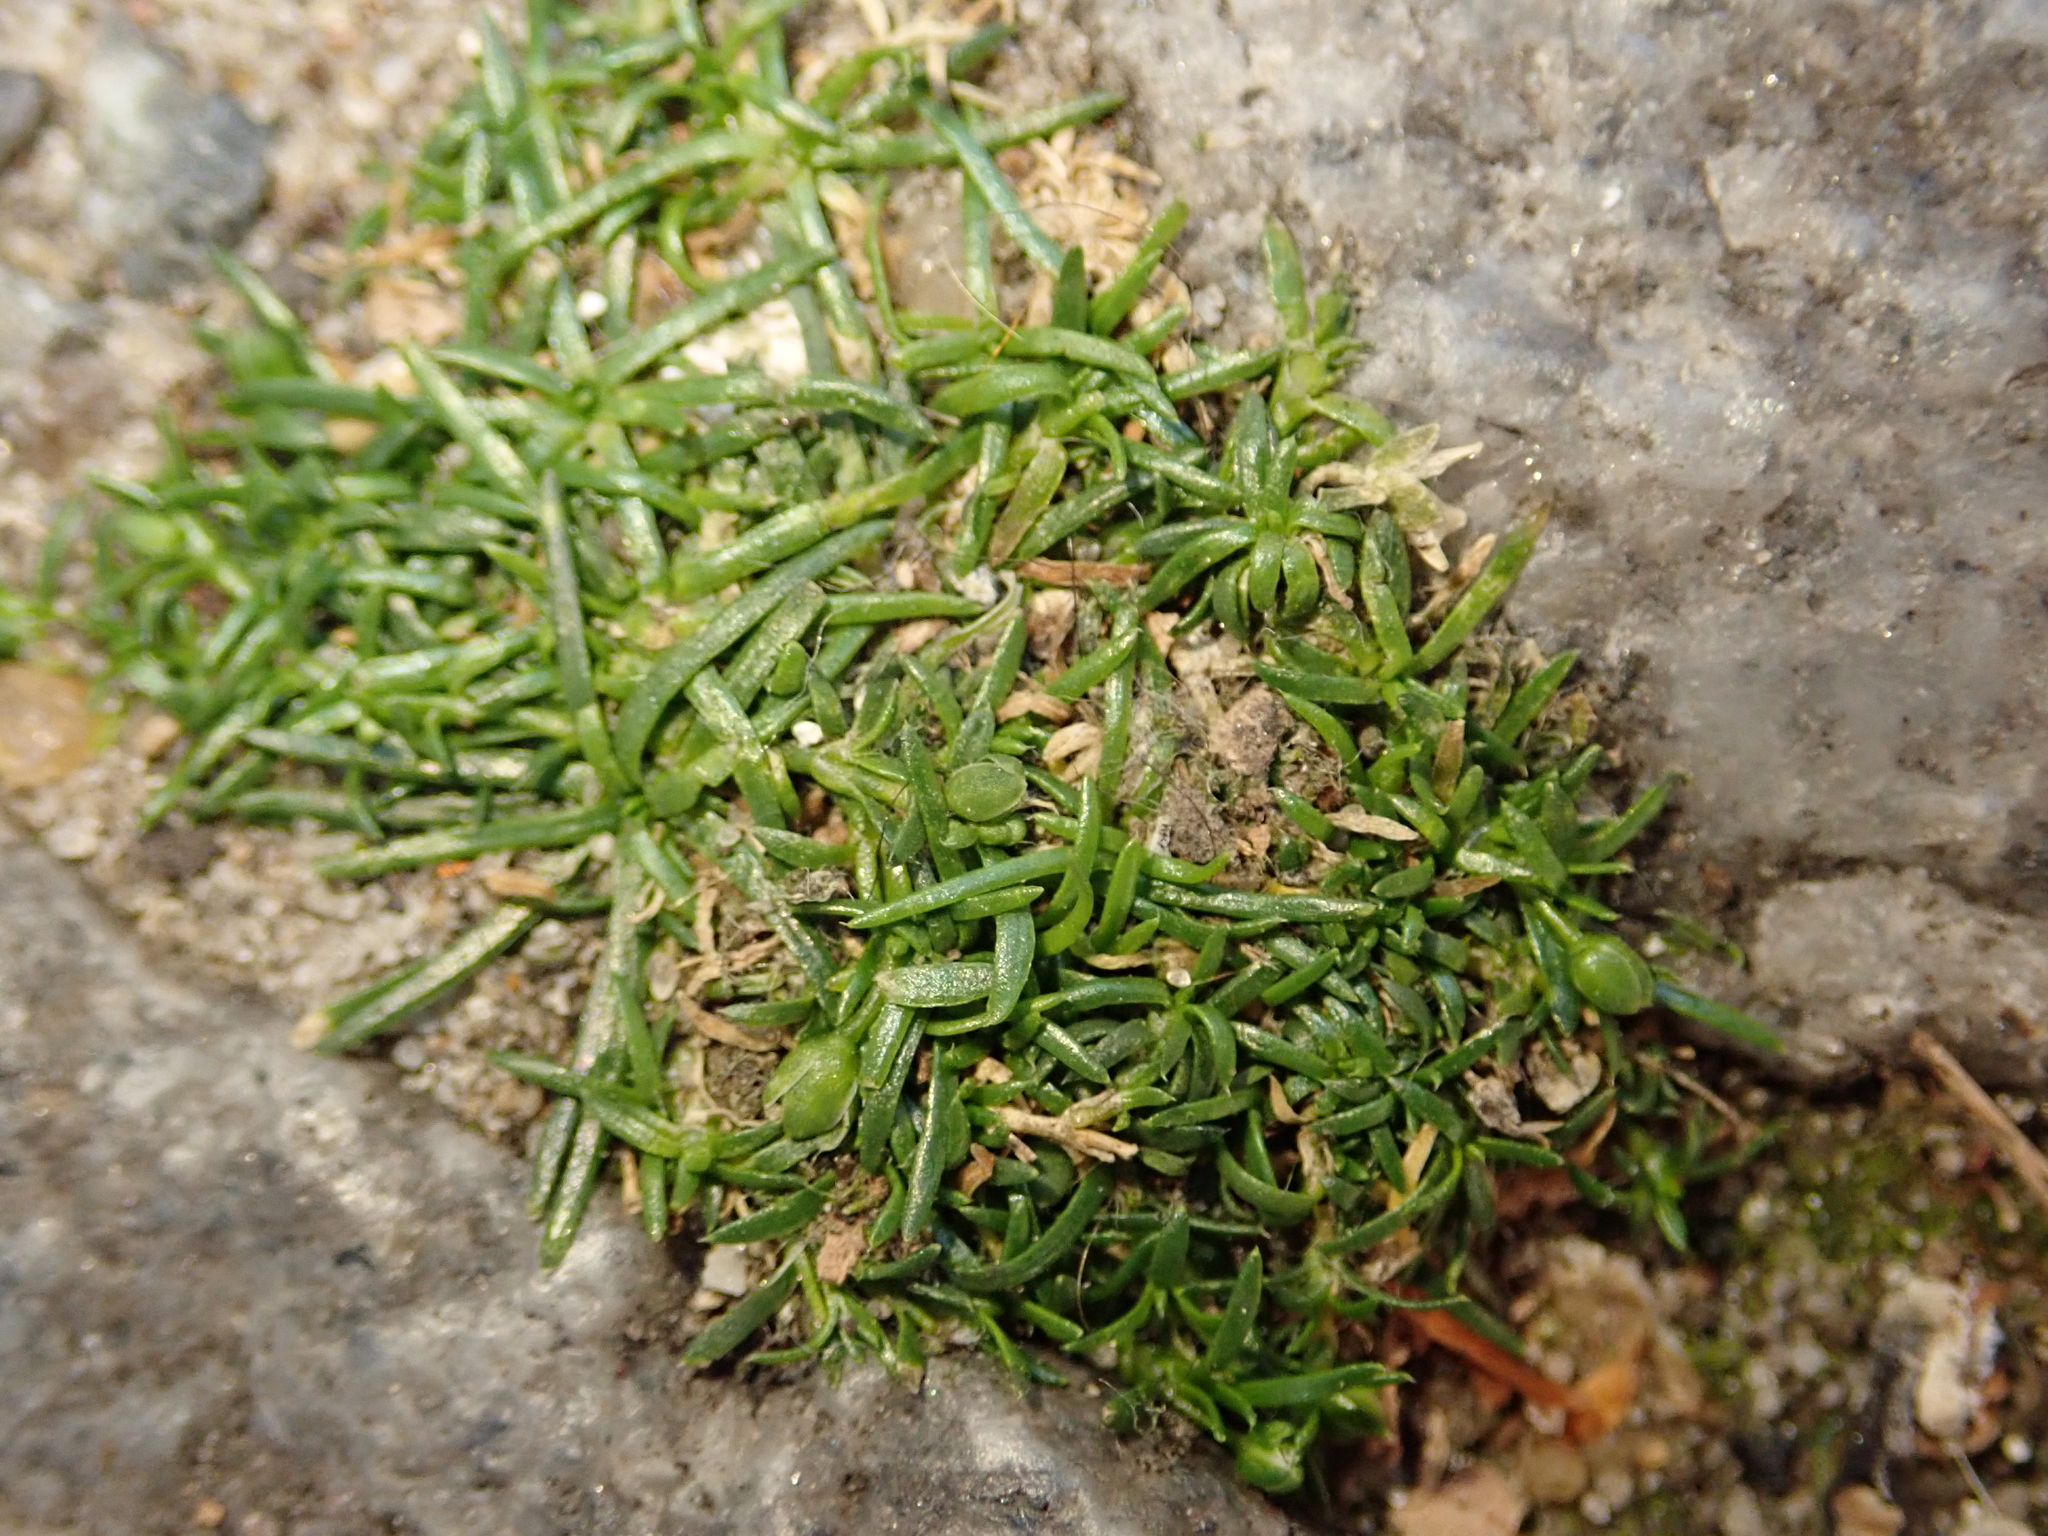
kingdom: Plantae
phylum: Tracheophyta
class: Magnoliopsida
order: Caryophyllales
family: Caryophyllaceae
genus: Sagina
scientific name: Sagina procumbens
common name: Procumbent pearlwort
